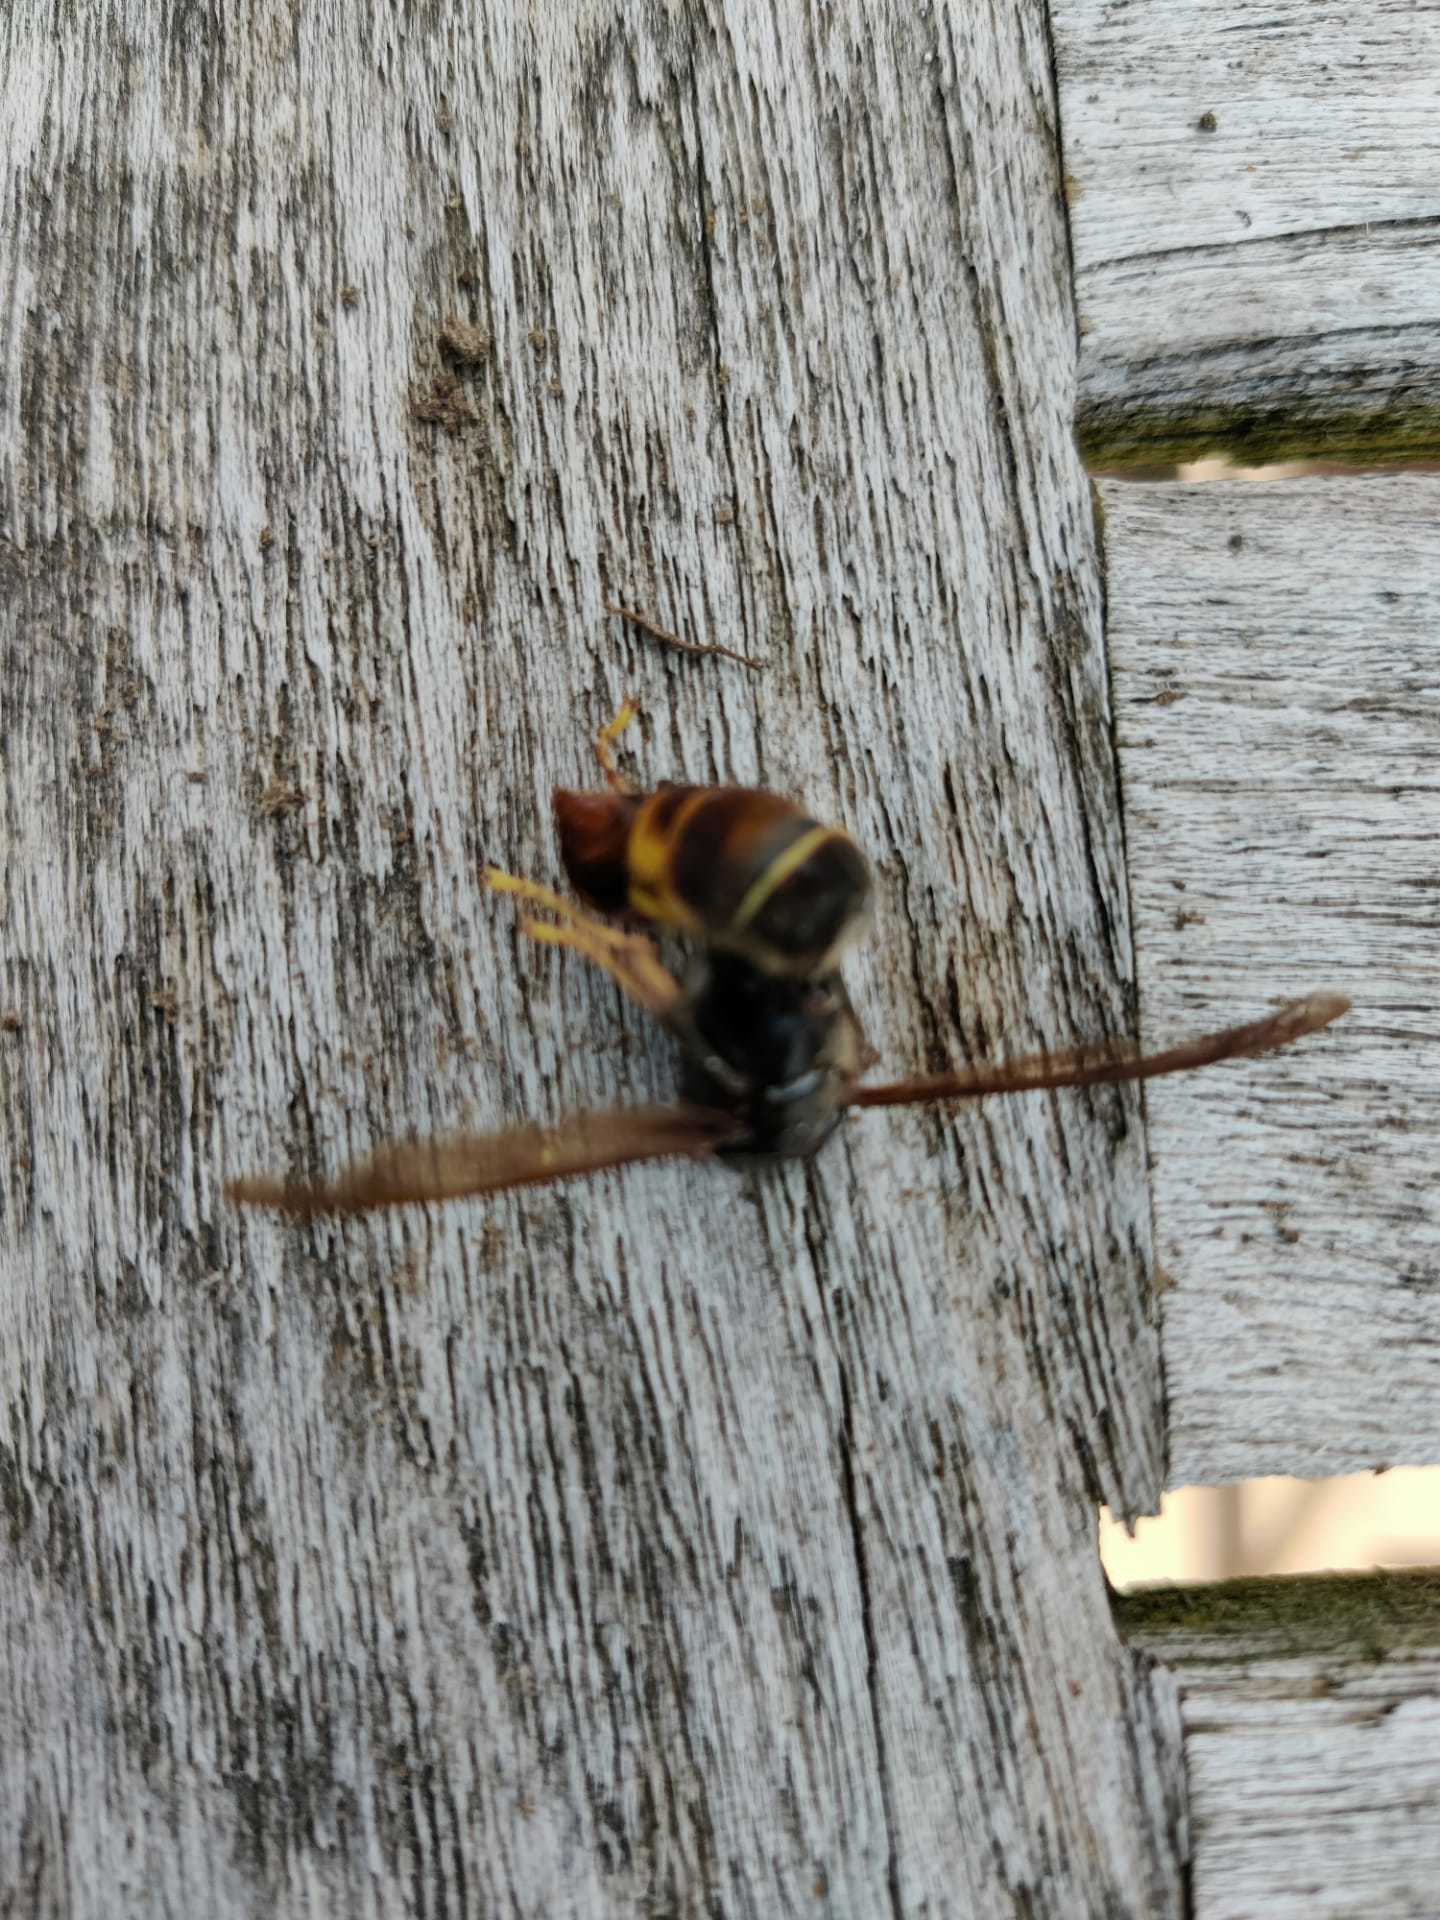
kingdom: Animalia
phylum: Arthropoda
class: Insecta
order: Hymenoptera
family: Vespidae
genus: Vespa
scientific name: Vespa velutina
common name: Asian hornet
